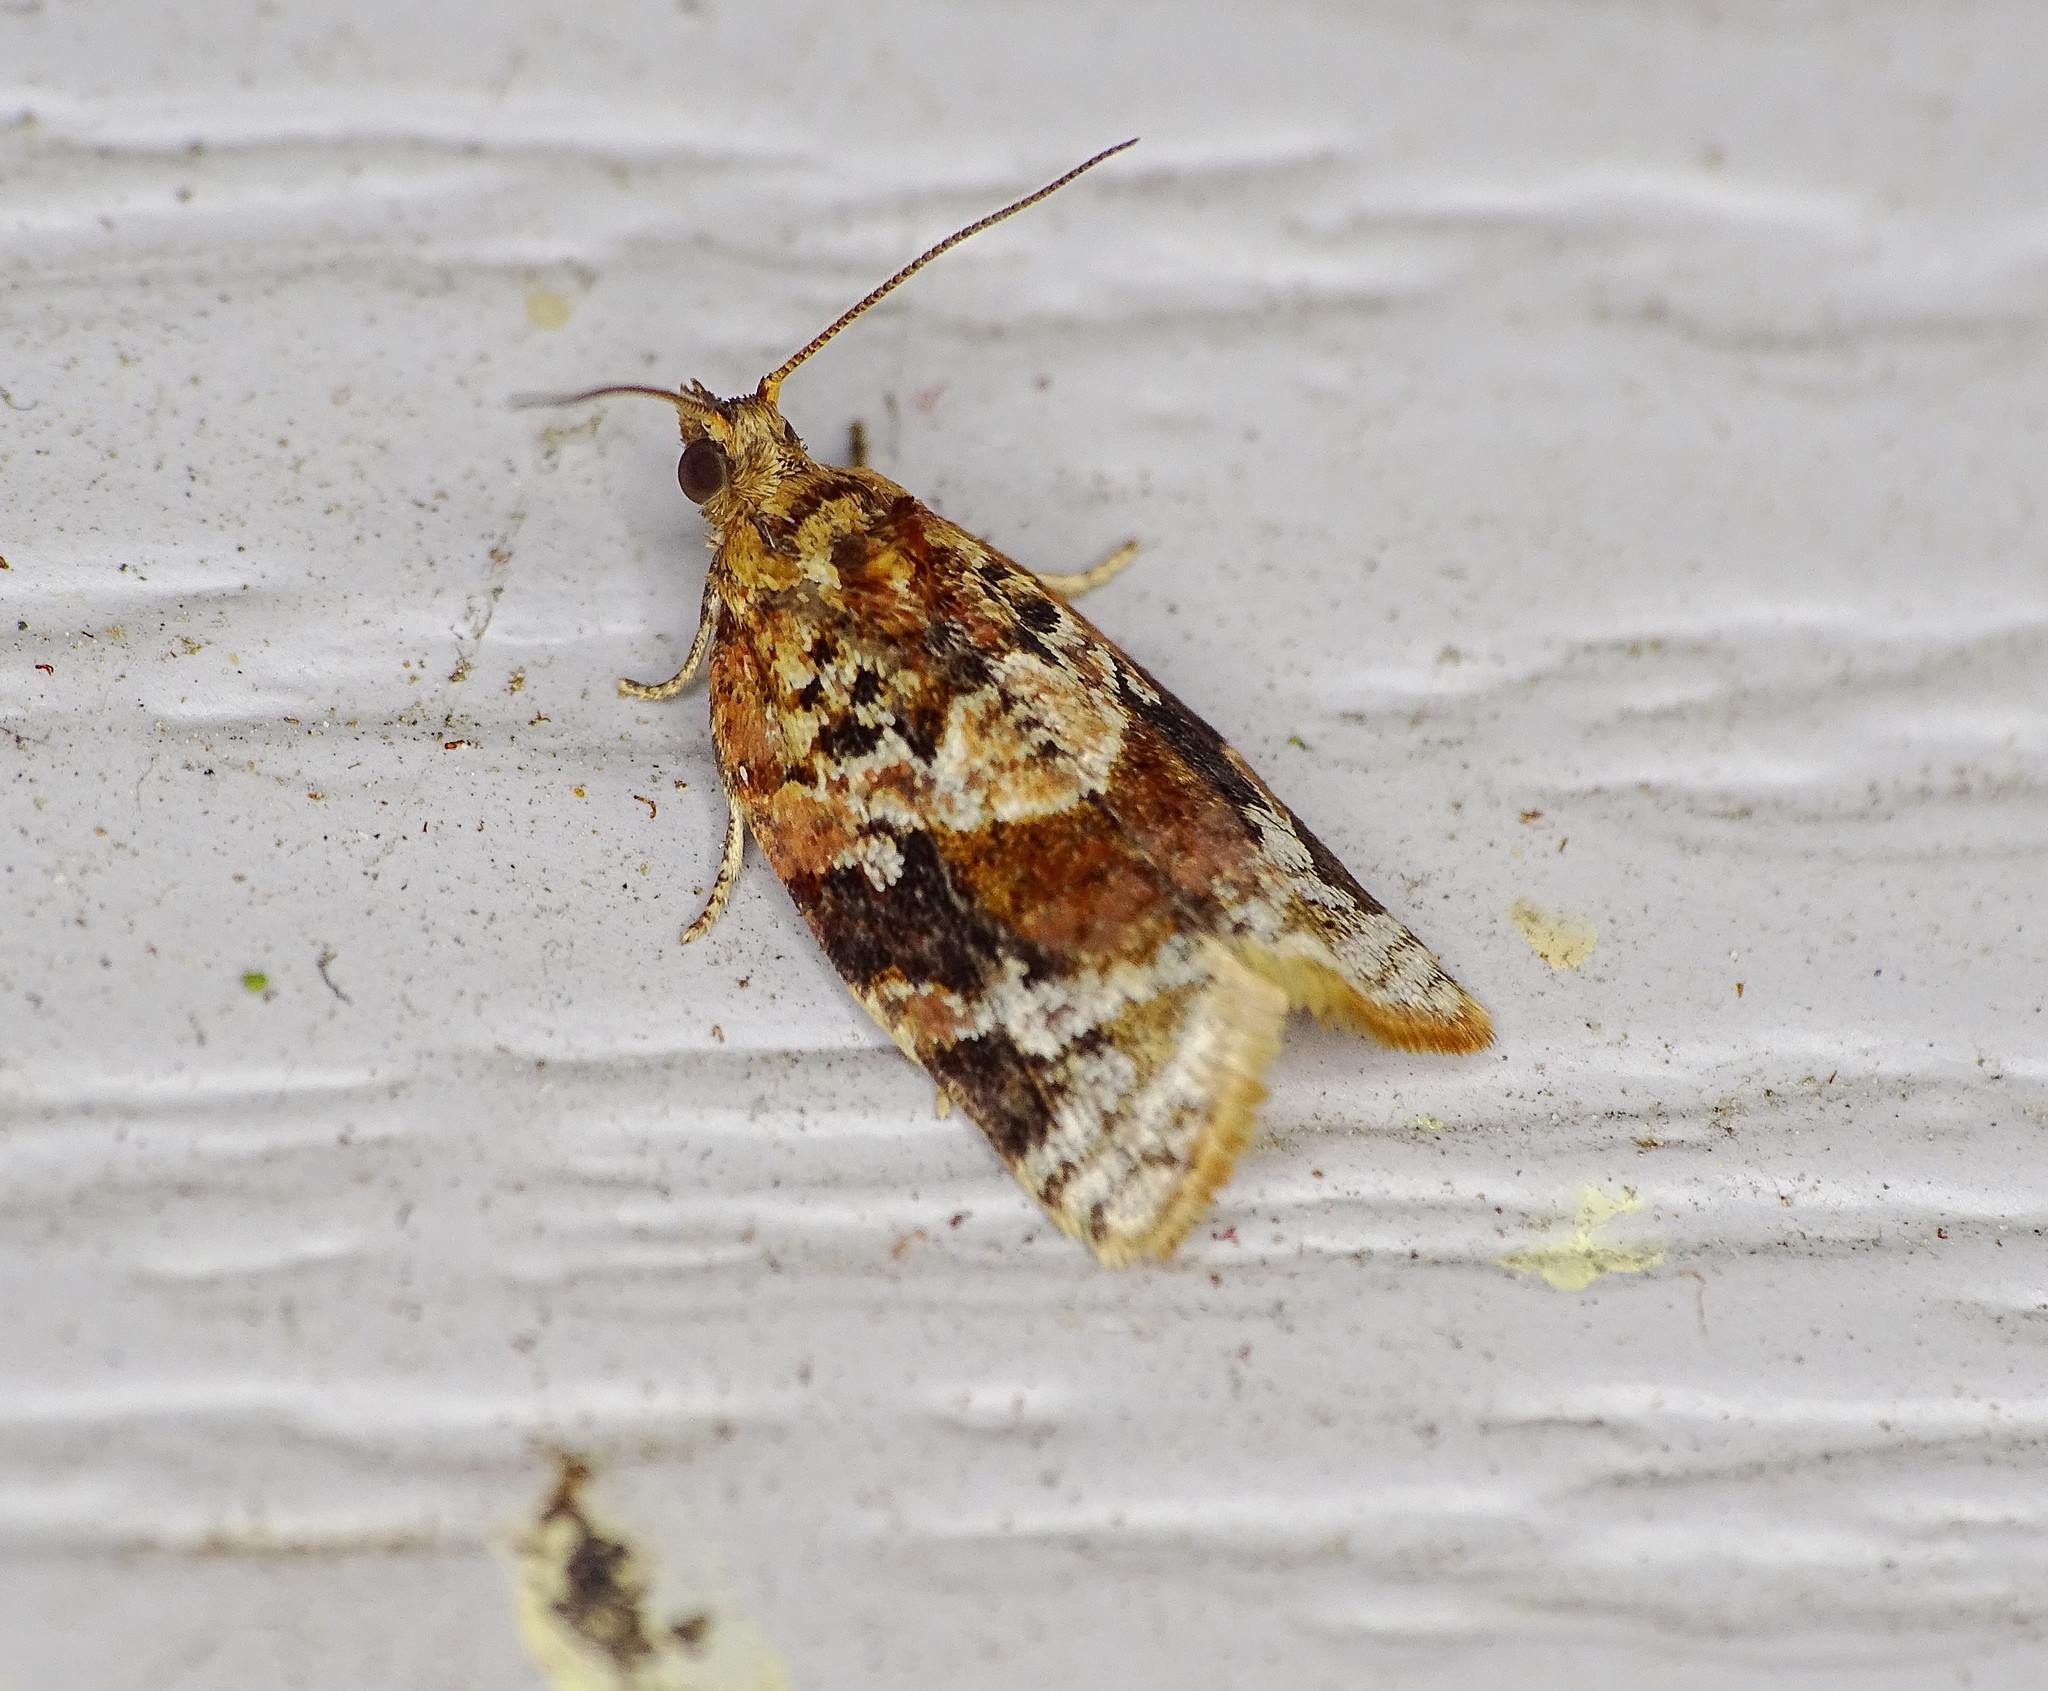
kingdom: Animalia
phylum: Arthropoda
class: Insecta
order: Lepidoptera
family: Tortricidae
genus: Argyrotaenia
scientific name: Argyrotaenia velutinana
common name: Red-banded leafroller moth
